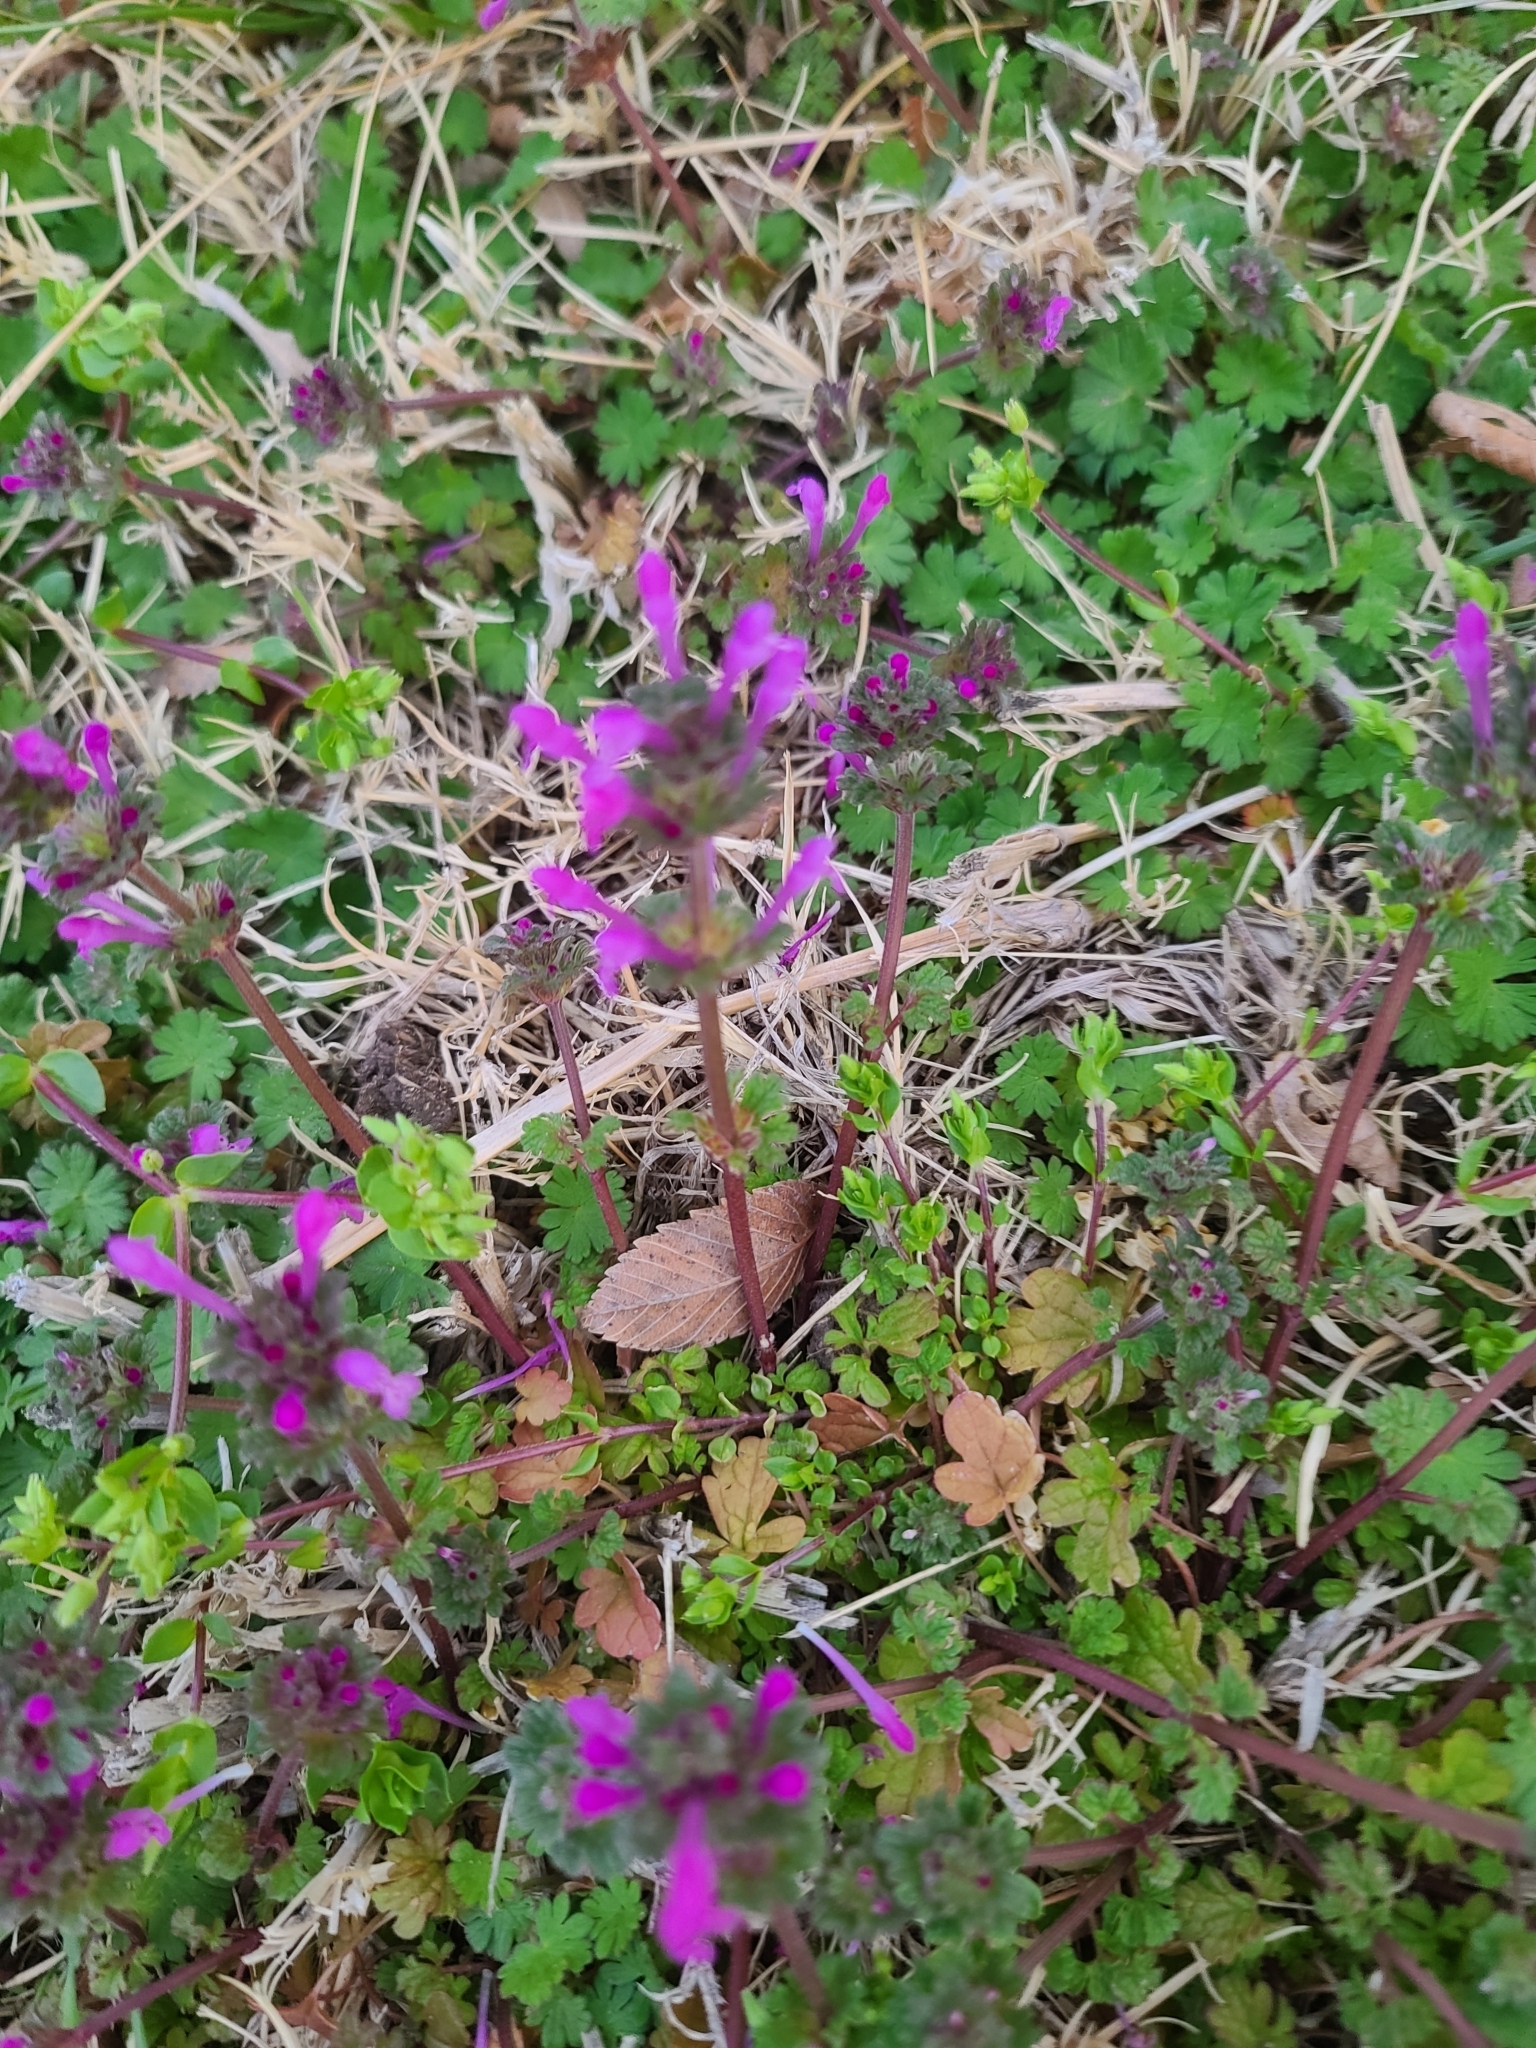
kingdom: Plantae
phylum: Tracheophyta
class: Magnoliopsida
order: Lamiales
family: Lamiaceae
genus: Lamium
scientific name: Lamium amplexicaule
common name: Henbit dead-nettle
